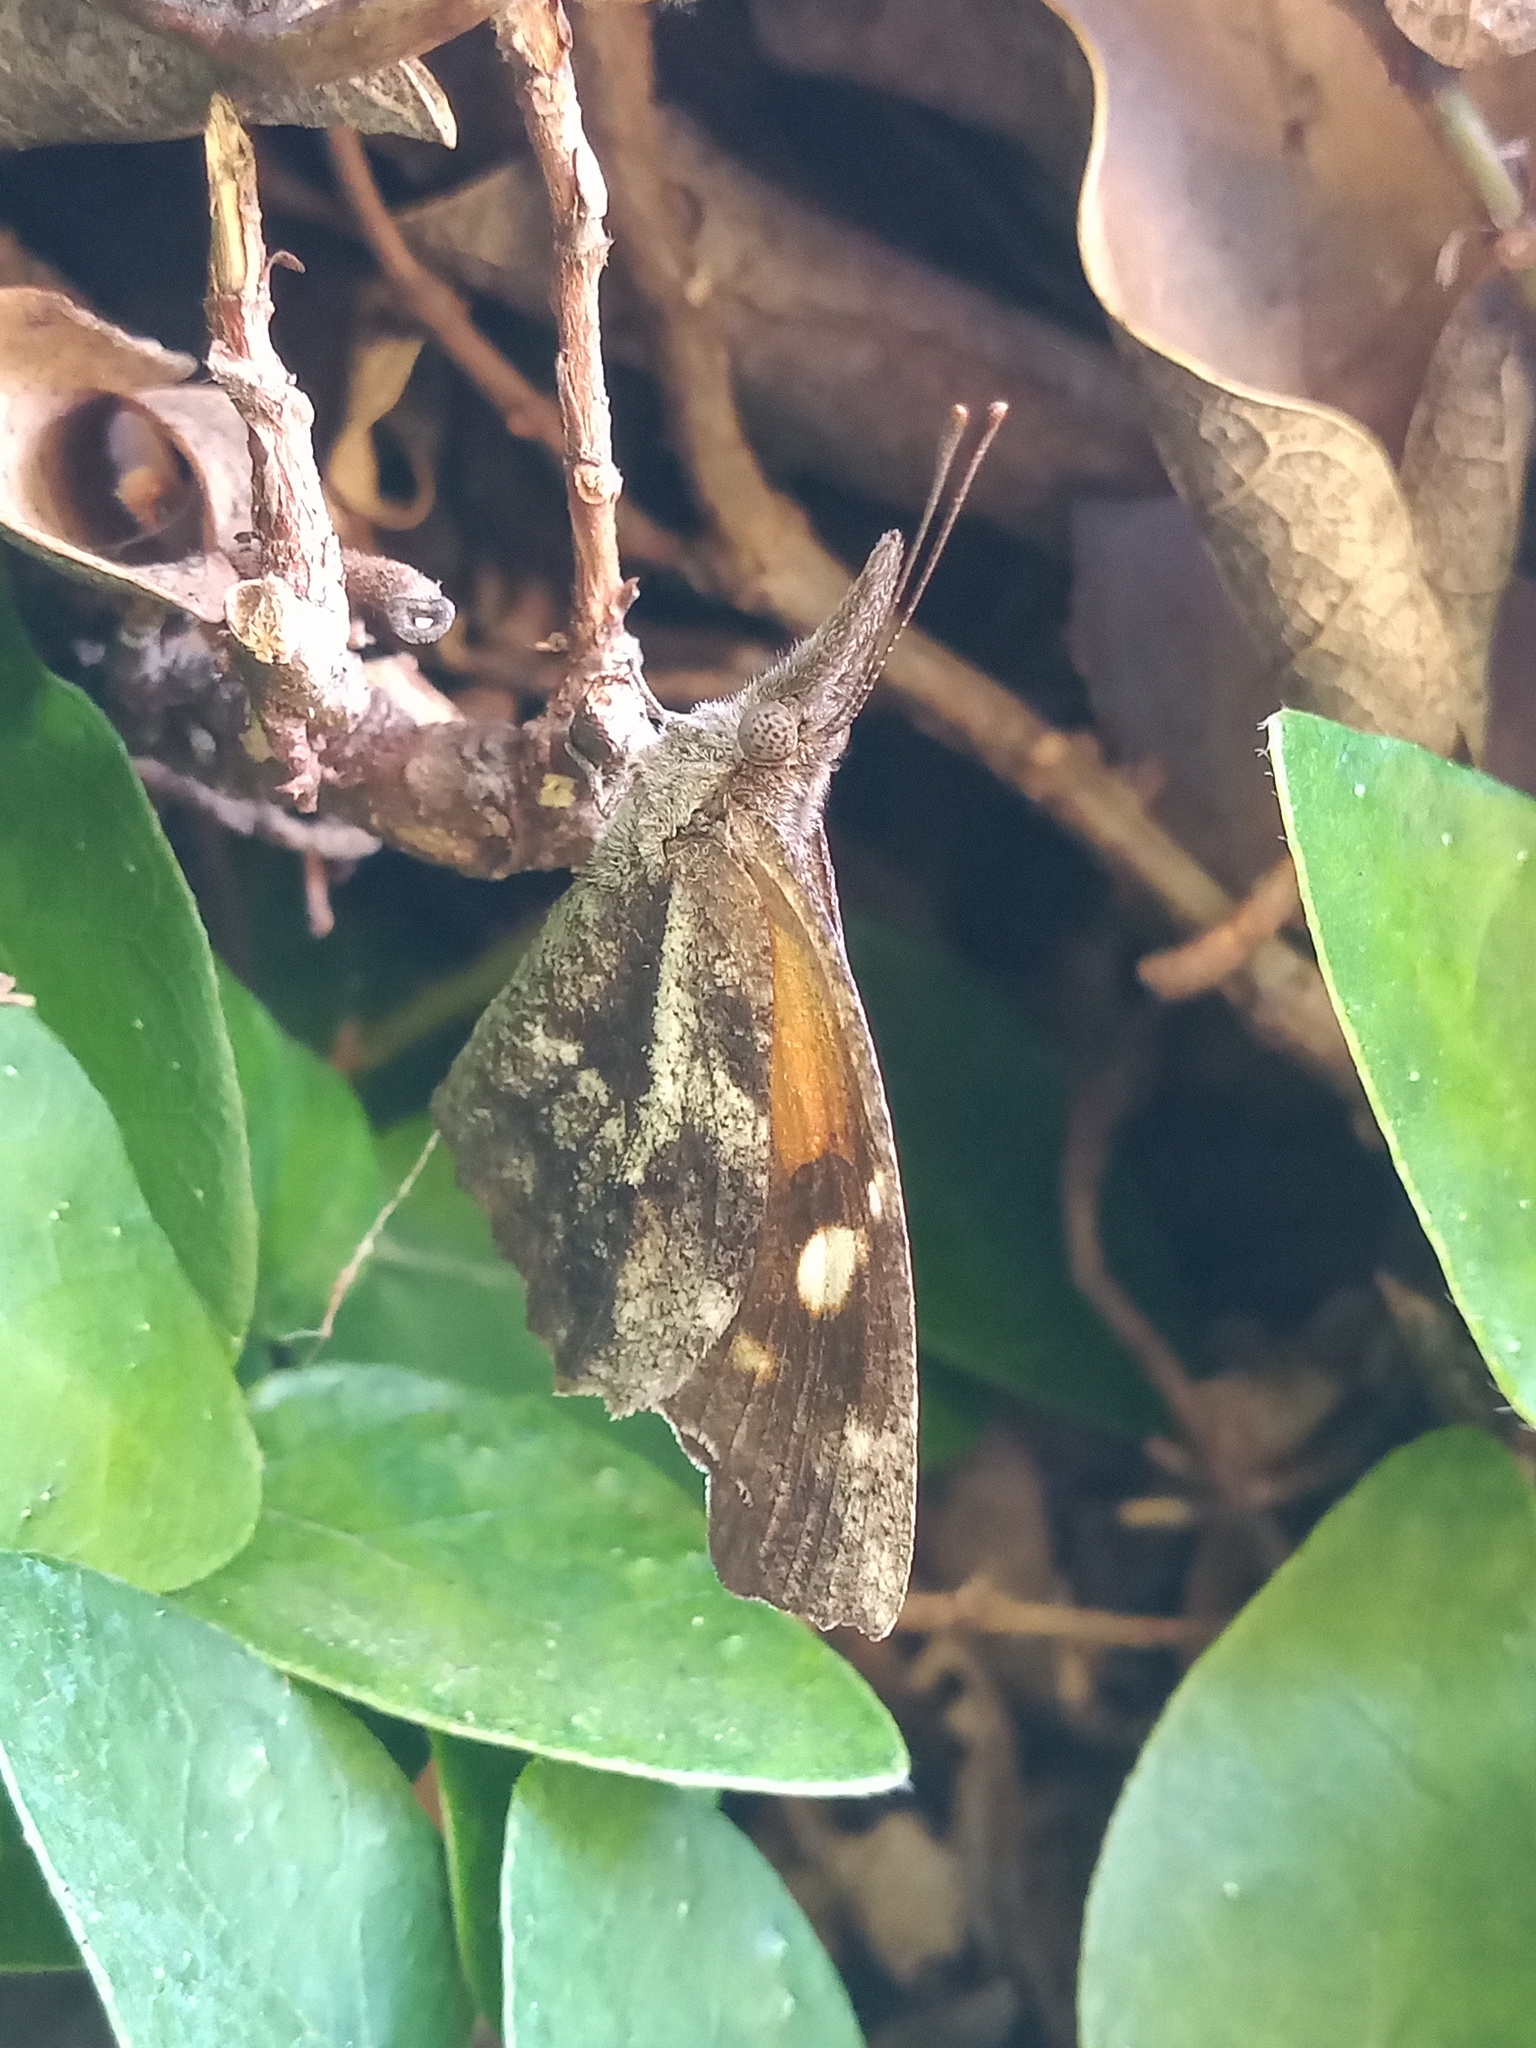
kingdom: Animalia
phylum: Arthropoda
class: Insecta
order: Lepidoptera
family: Nymphalidae
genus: Libytheana
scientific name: Libytheana carinenta
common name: American snout
